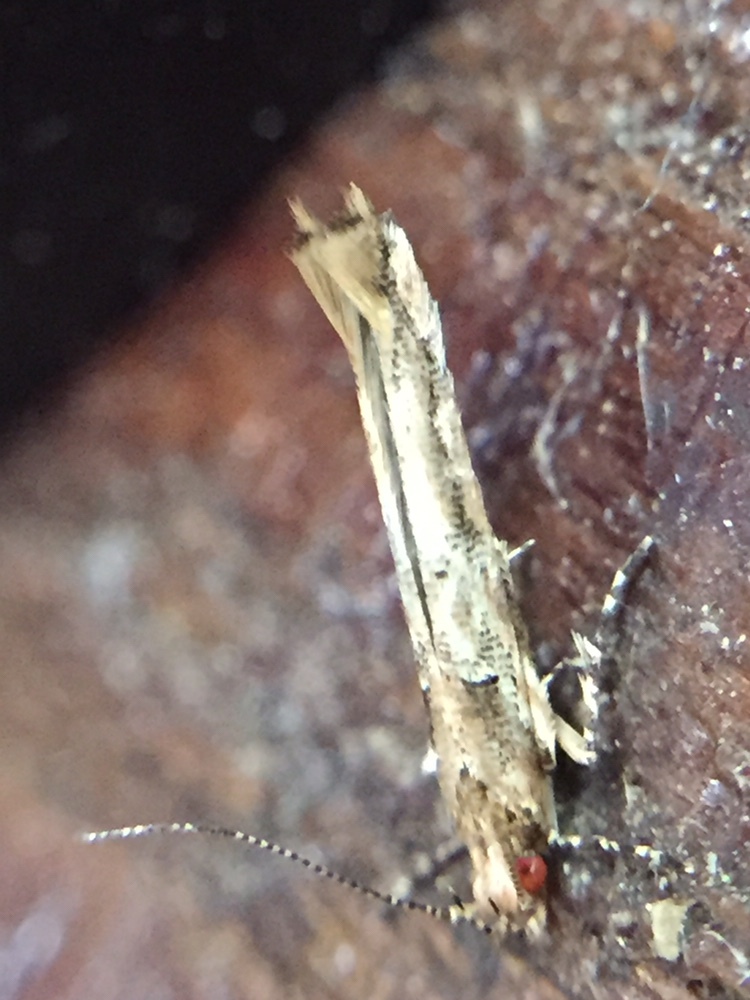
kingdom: Animalia
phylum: Arthropoda
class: Insecta
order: Lepidoptera
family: Cosmopterigidae
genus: Pyroderces
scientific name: Pyroderces aellotricha
